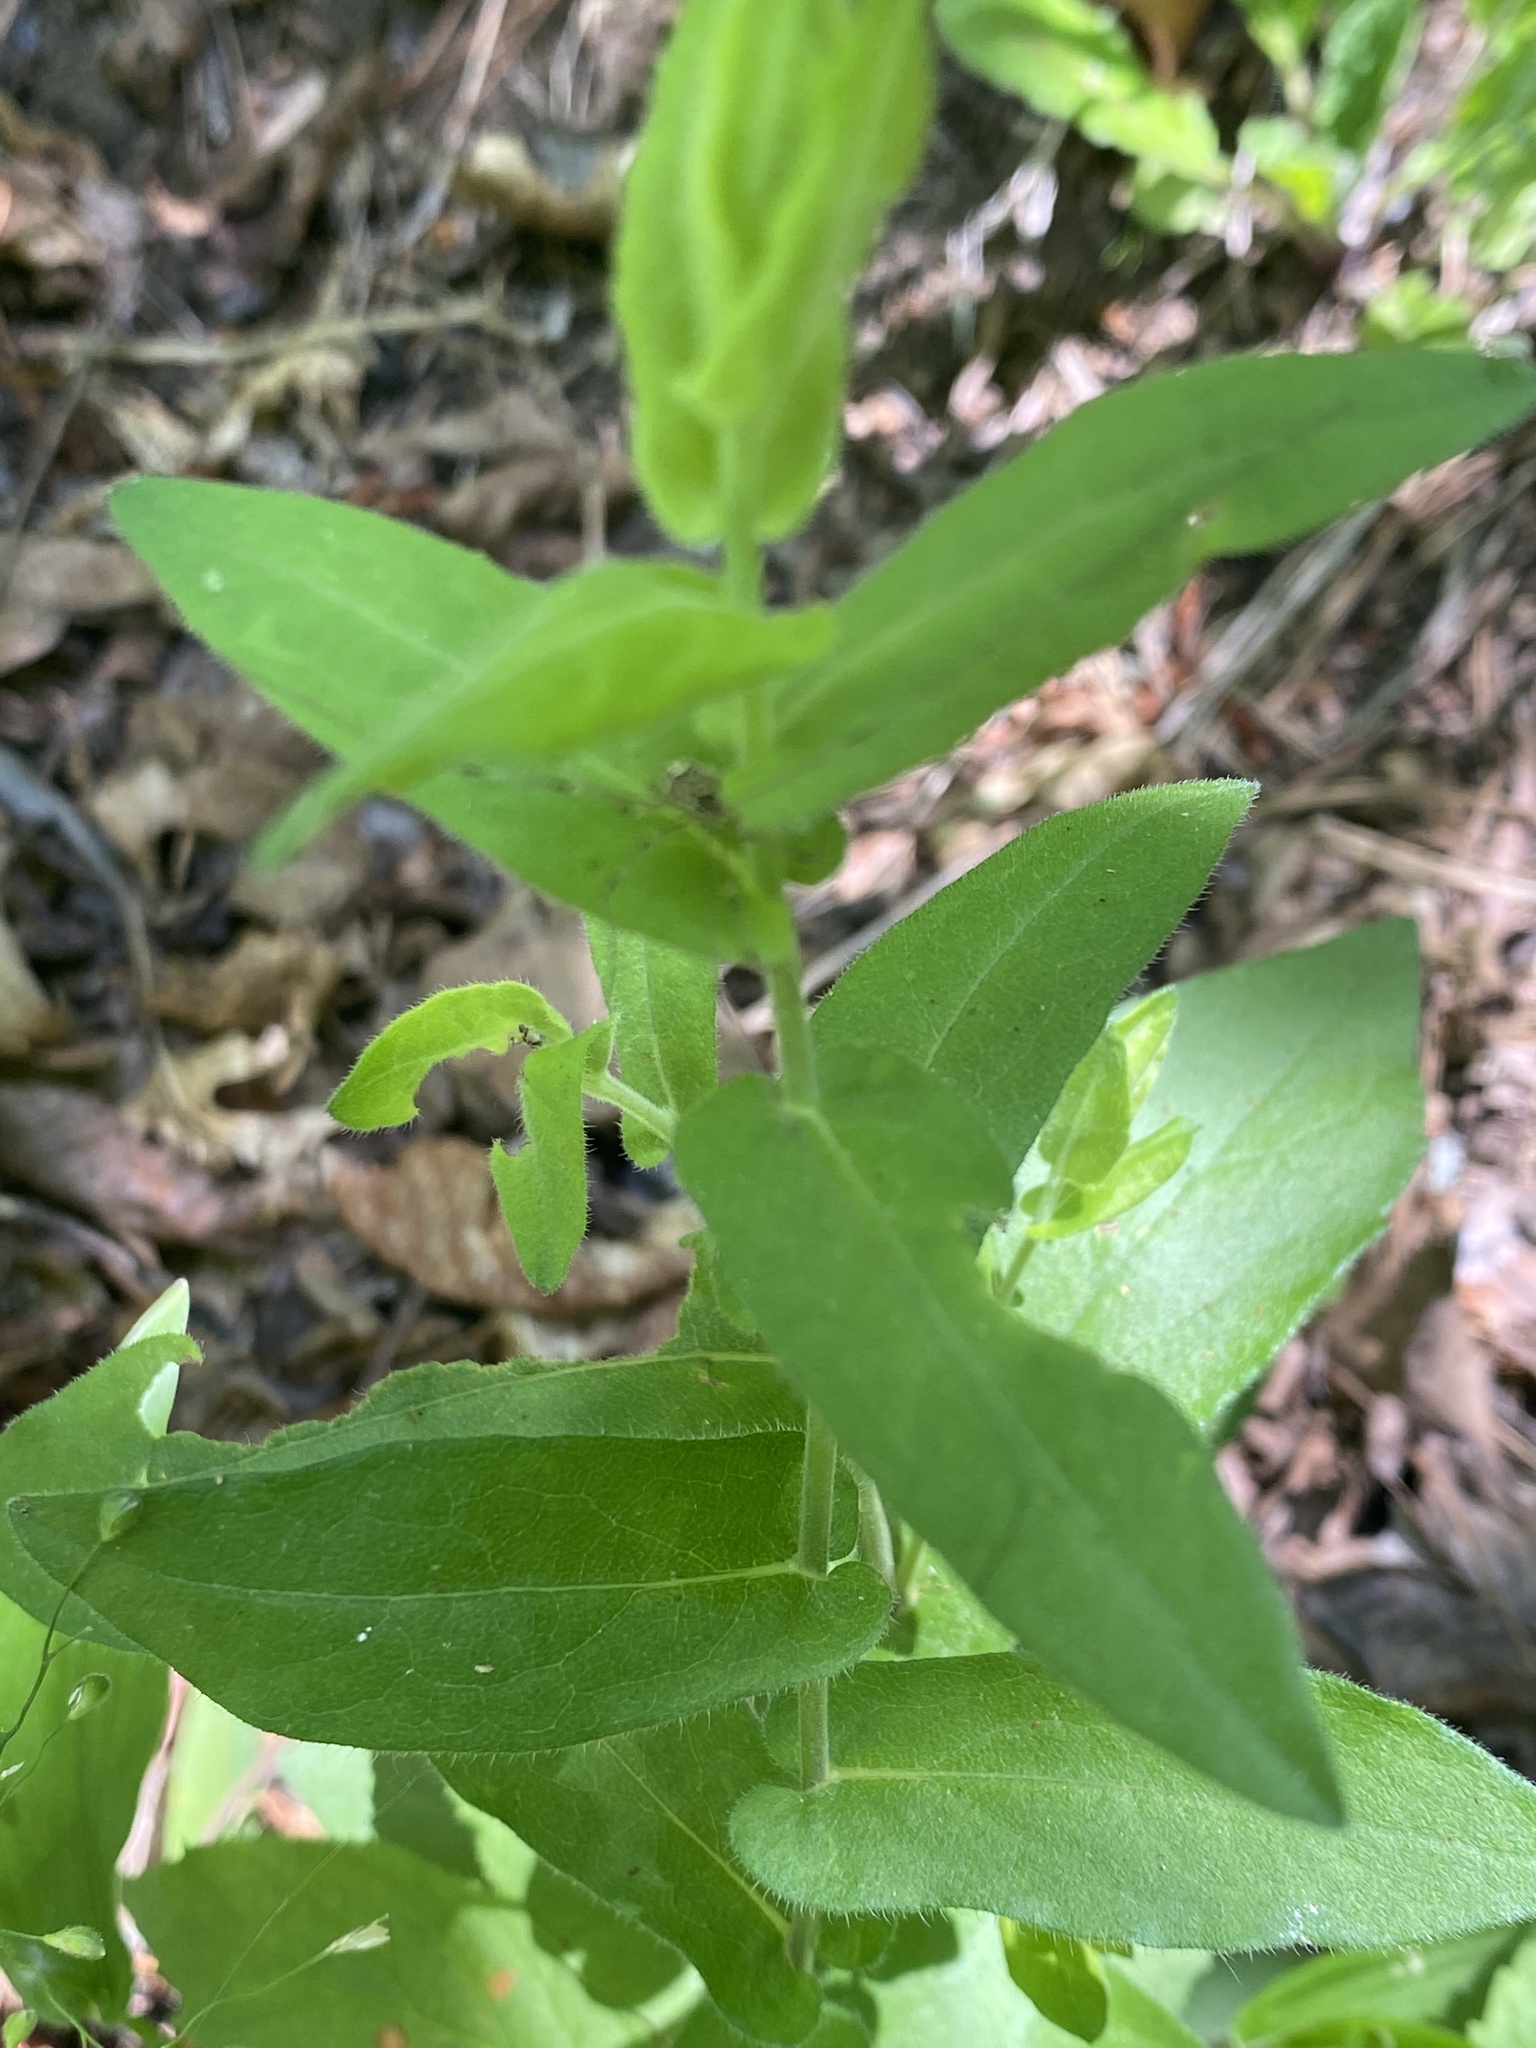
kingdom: Plantae
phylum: Tracheophyta
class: Magnoliopsida
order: Asterales
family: Asteraceae
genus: Symphyotrichum
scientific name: Symphyotrichum patens
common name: Late purple aster
